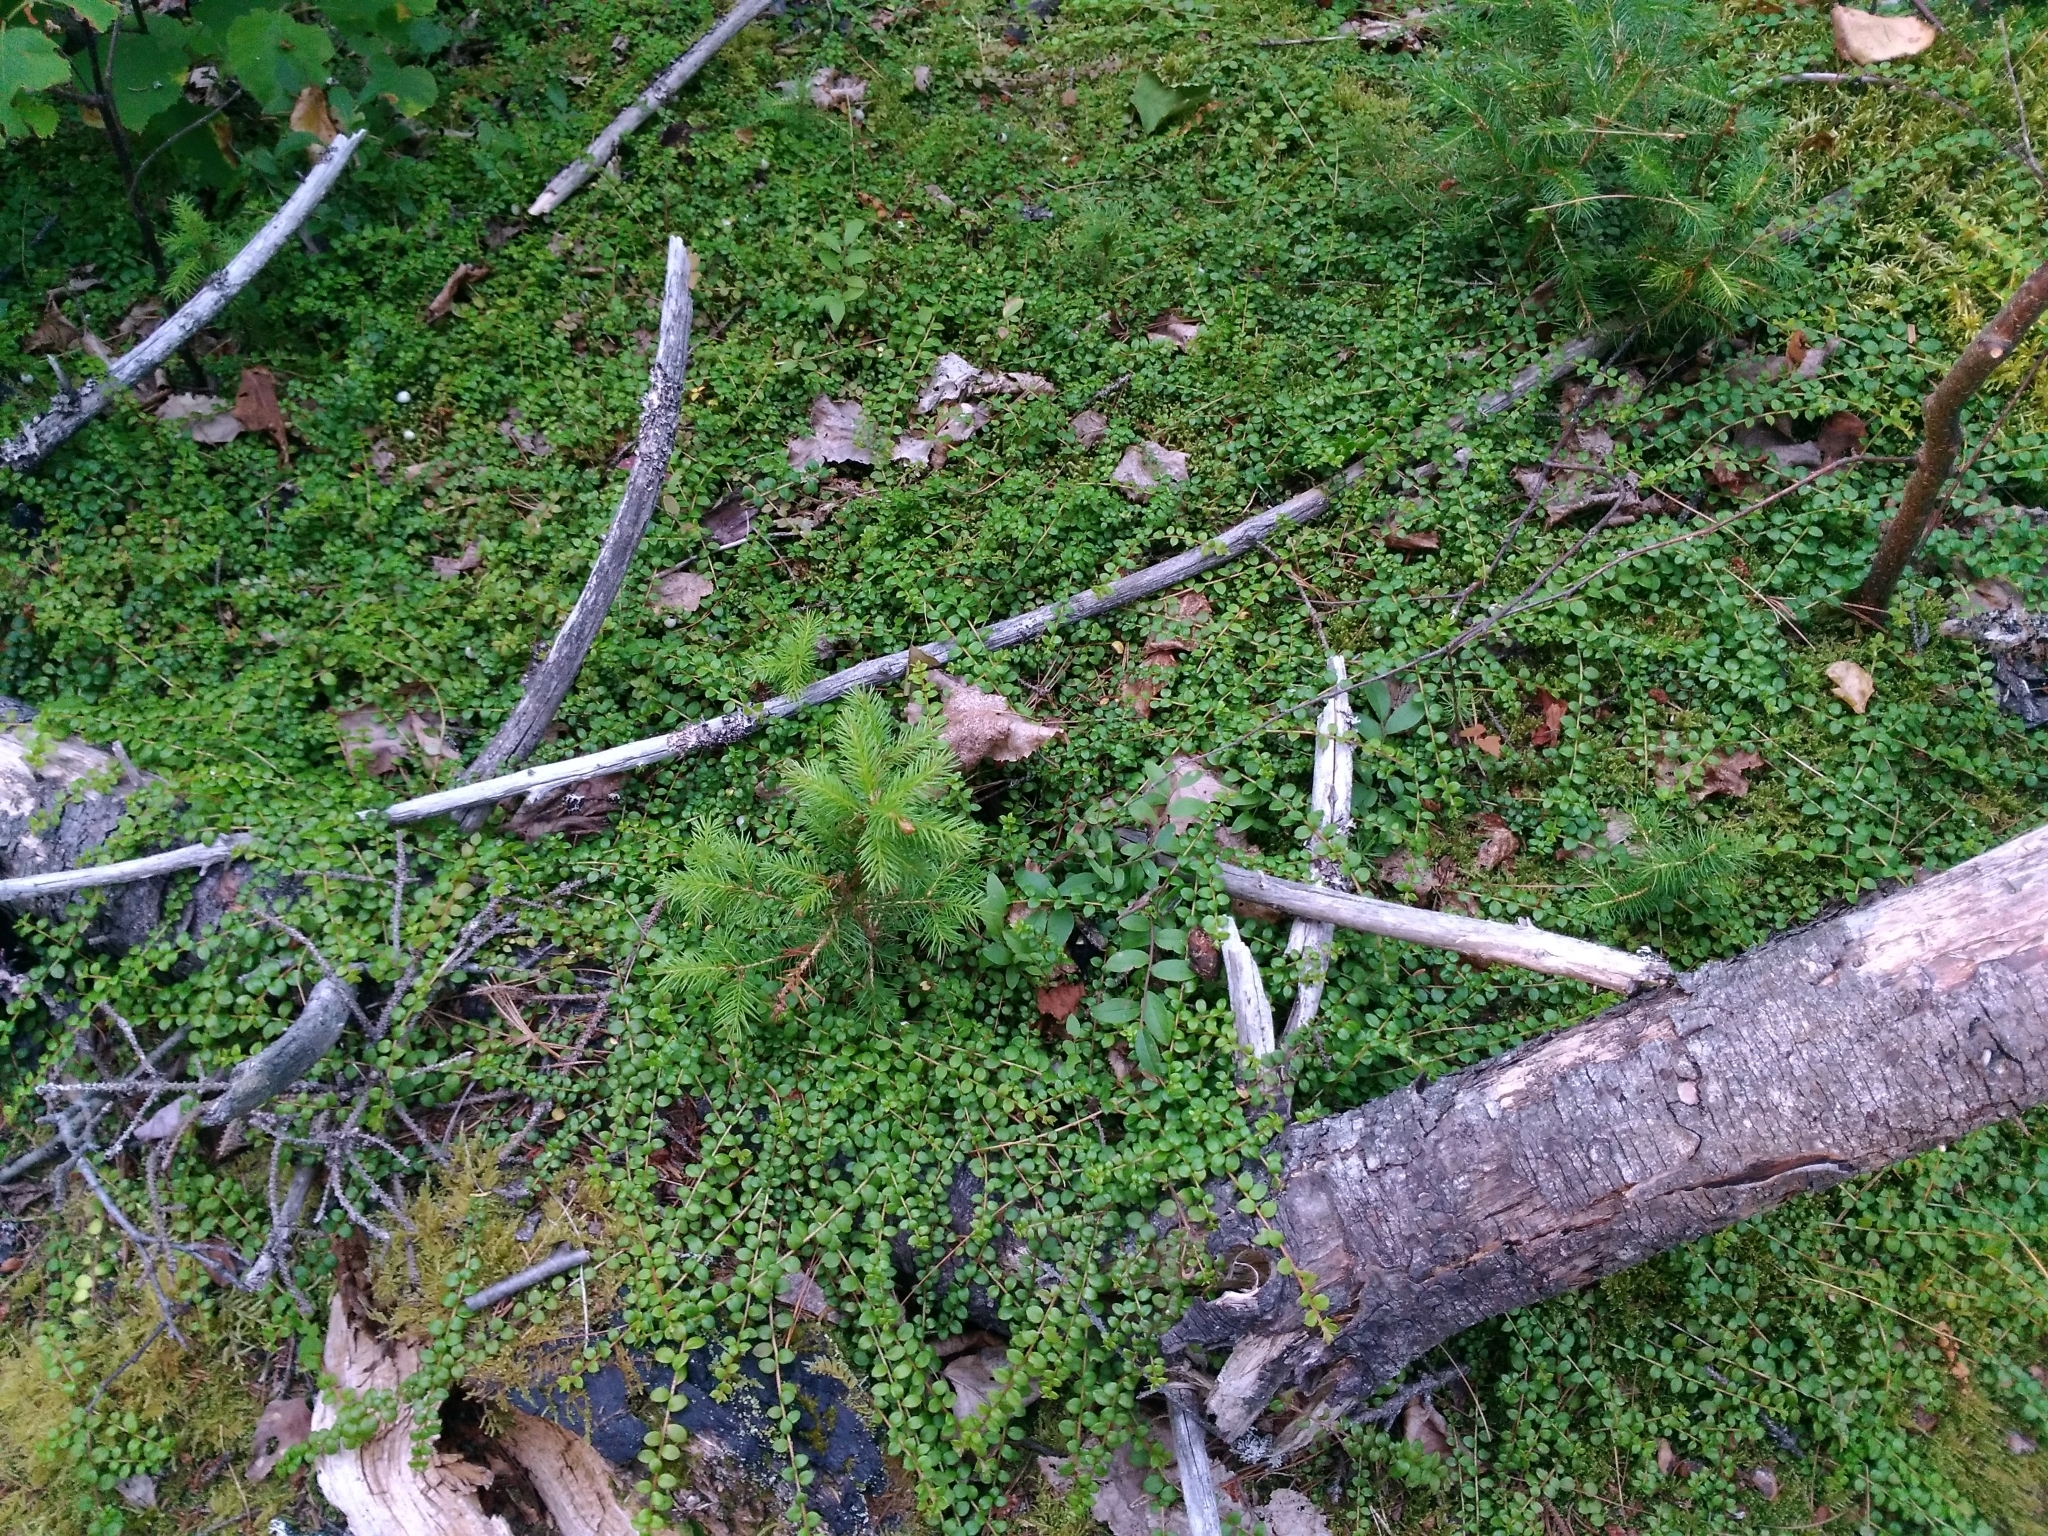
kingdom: Plantae
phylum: Tracheophyta
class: Magnoliopsida
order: Ericales
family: Ericaceae
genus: Gaultheria
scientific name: Gaultheria hispidula
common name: Cancer wintergreen
